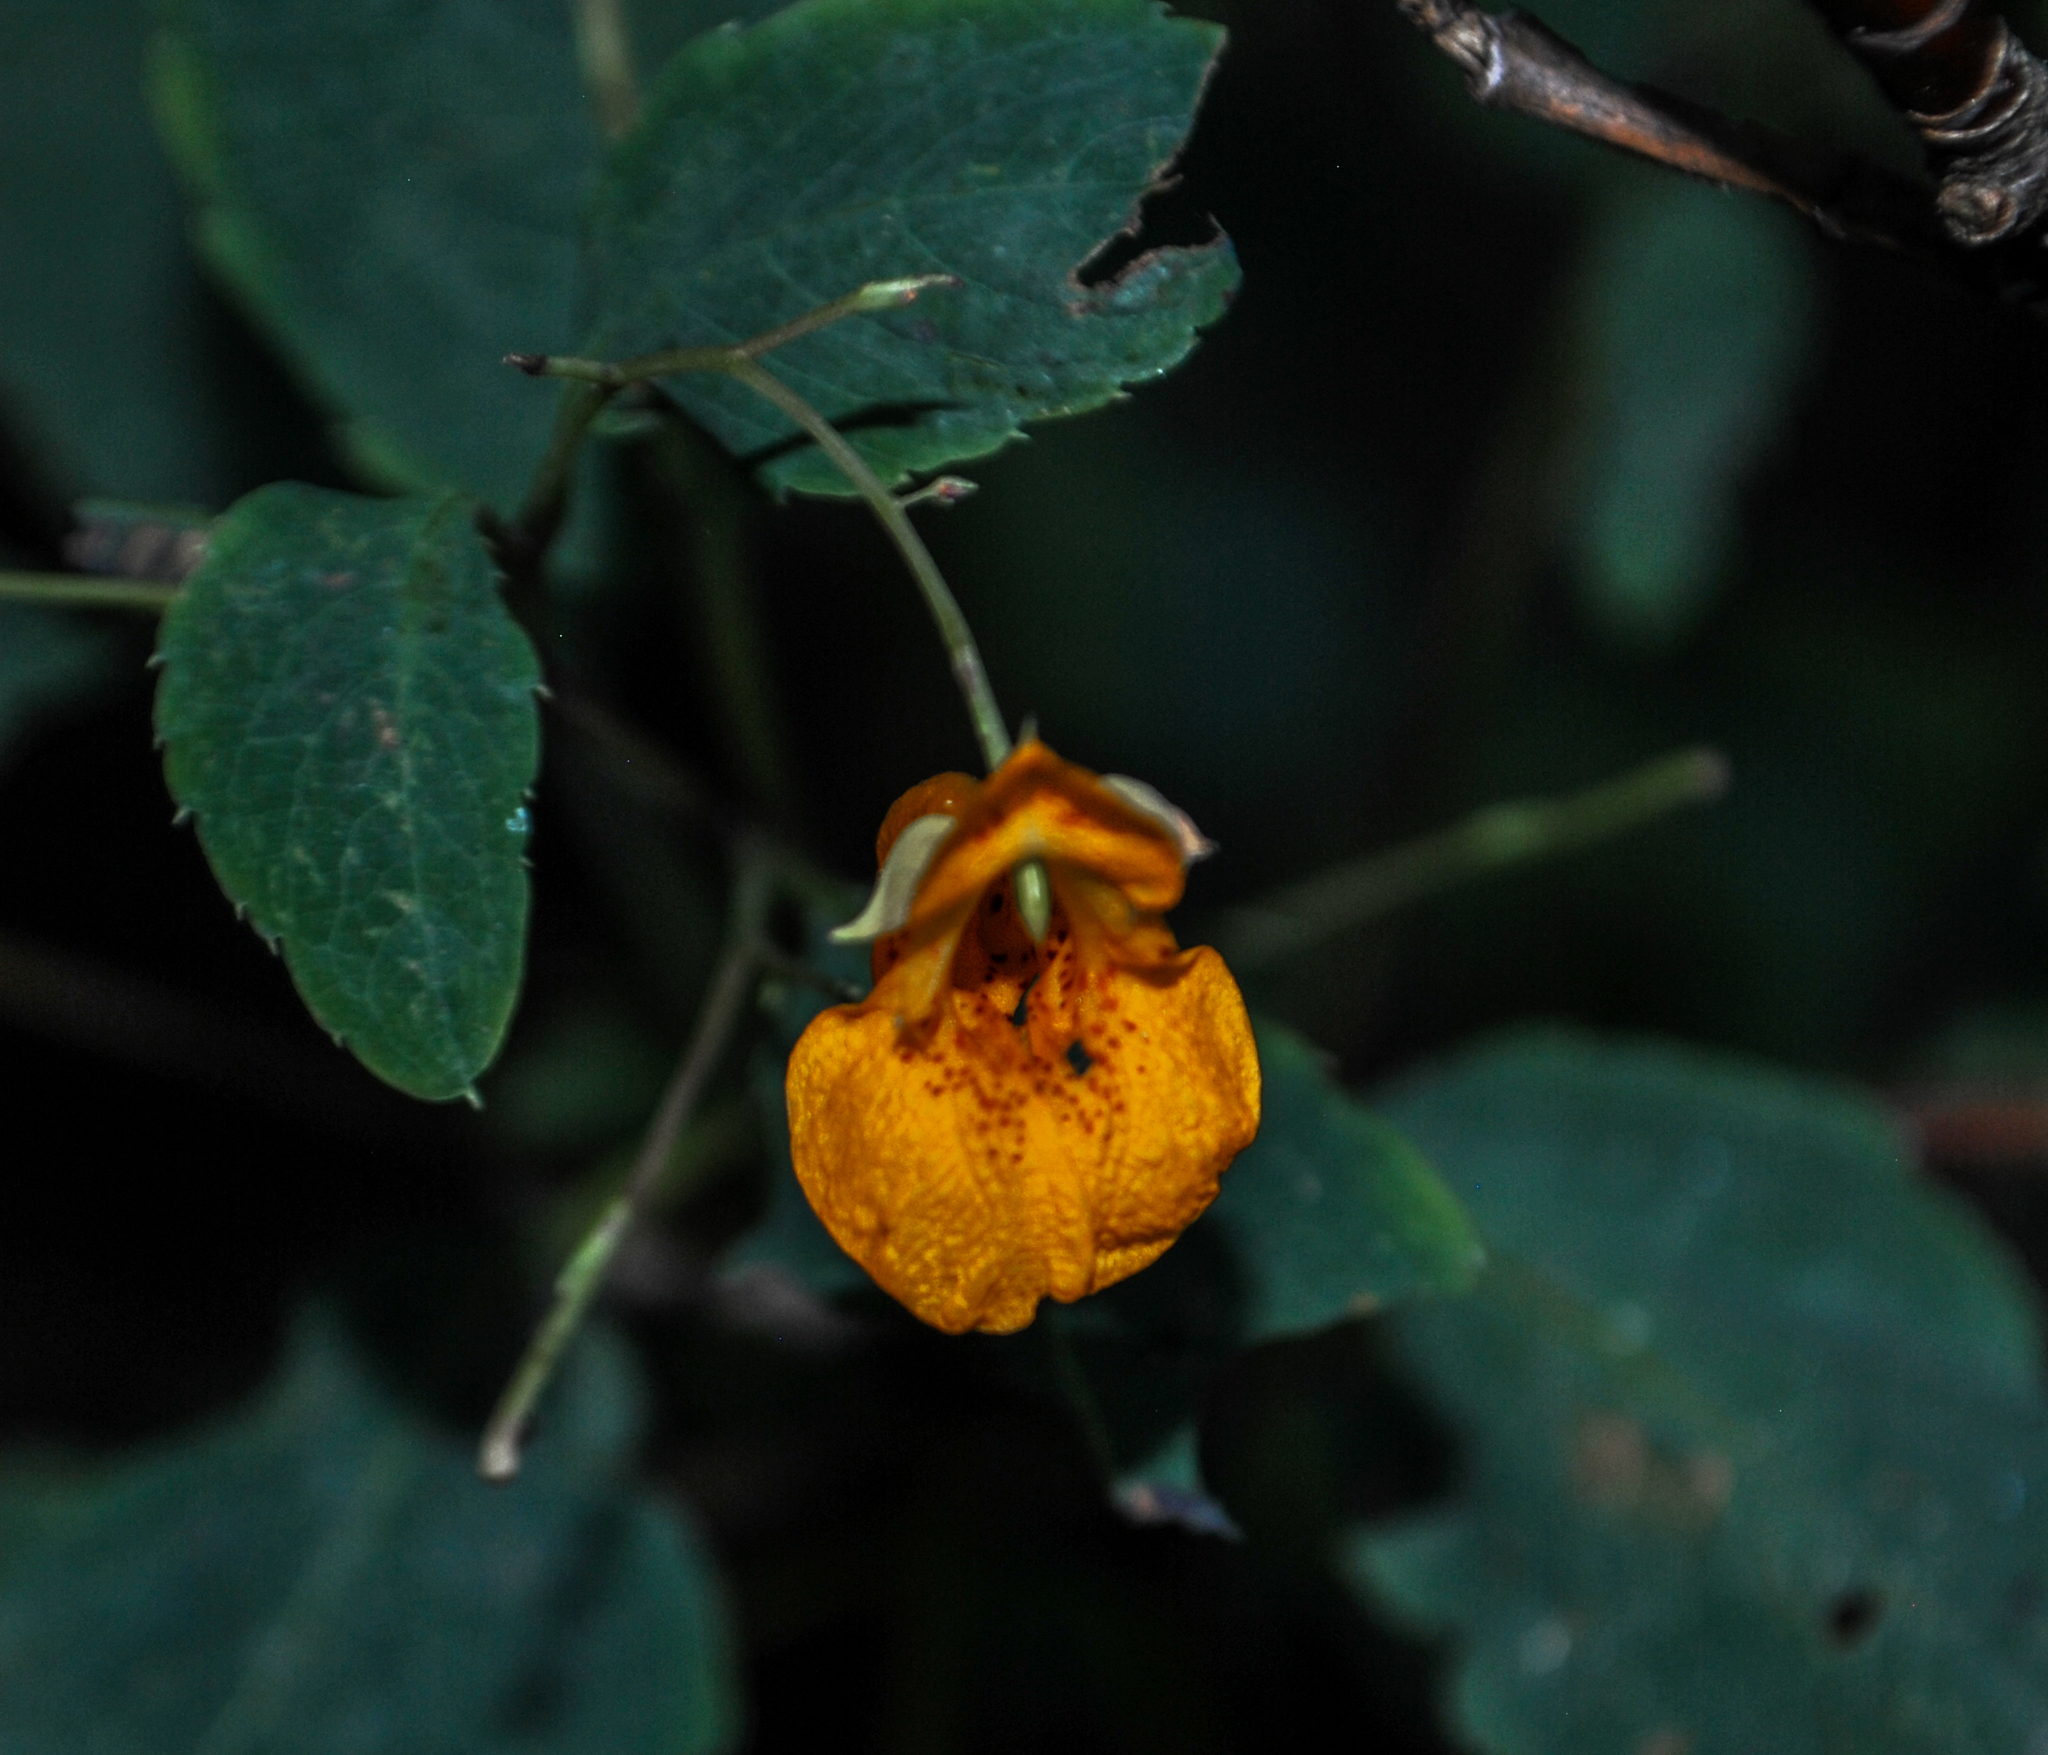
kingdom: Plantae
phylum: Tracheophyta
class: Magnoliopsida
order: Ericales
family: Balsaminaceae
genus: Impatiens
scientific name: Impatiens capensis
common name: Orange balsam
